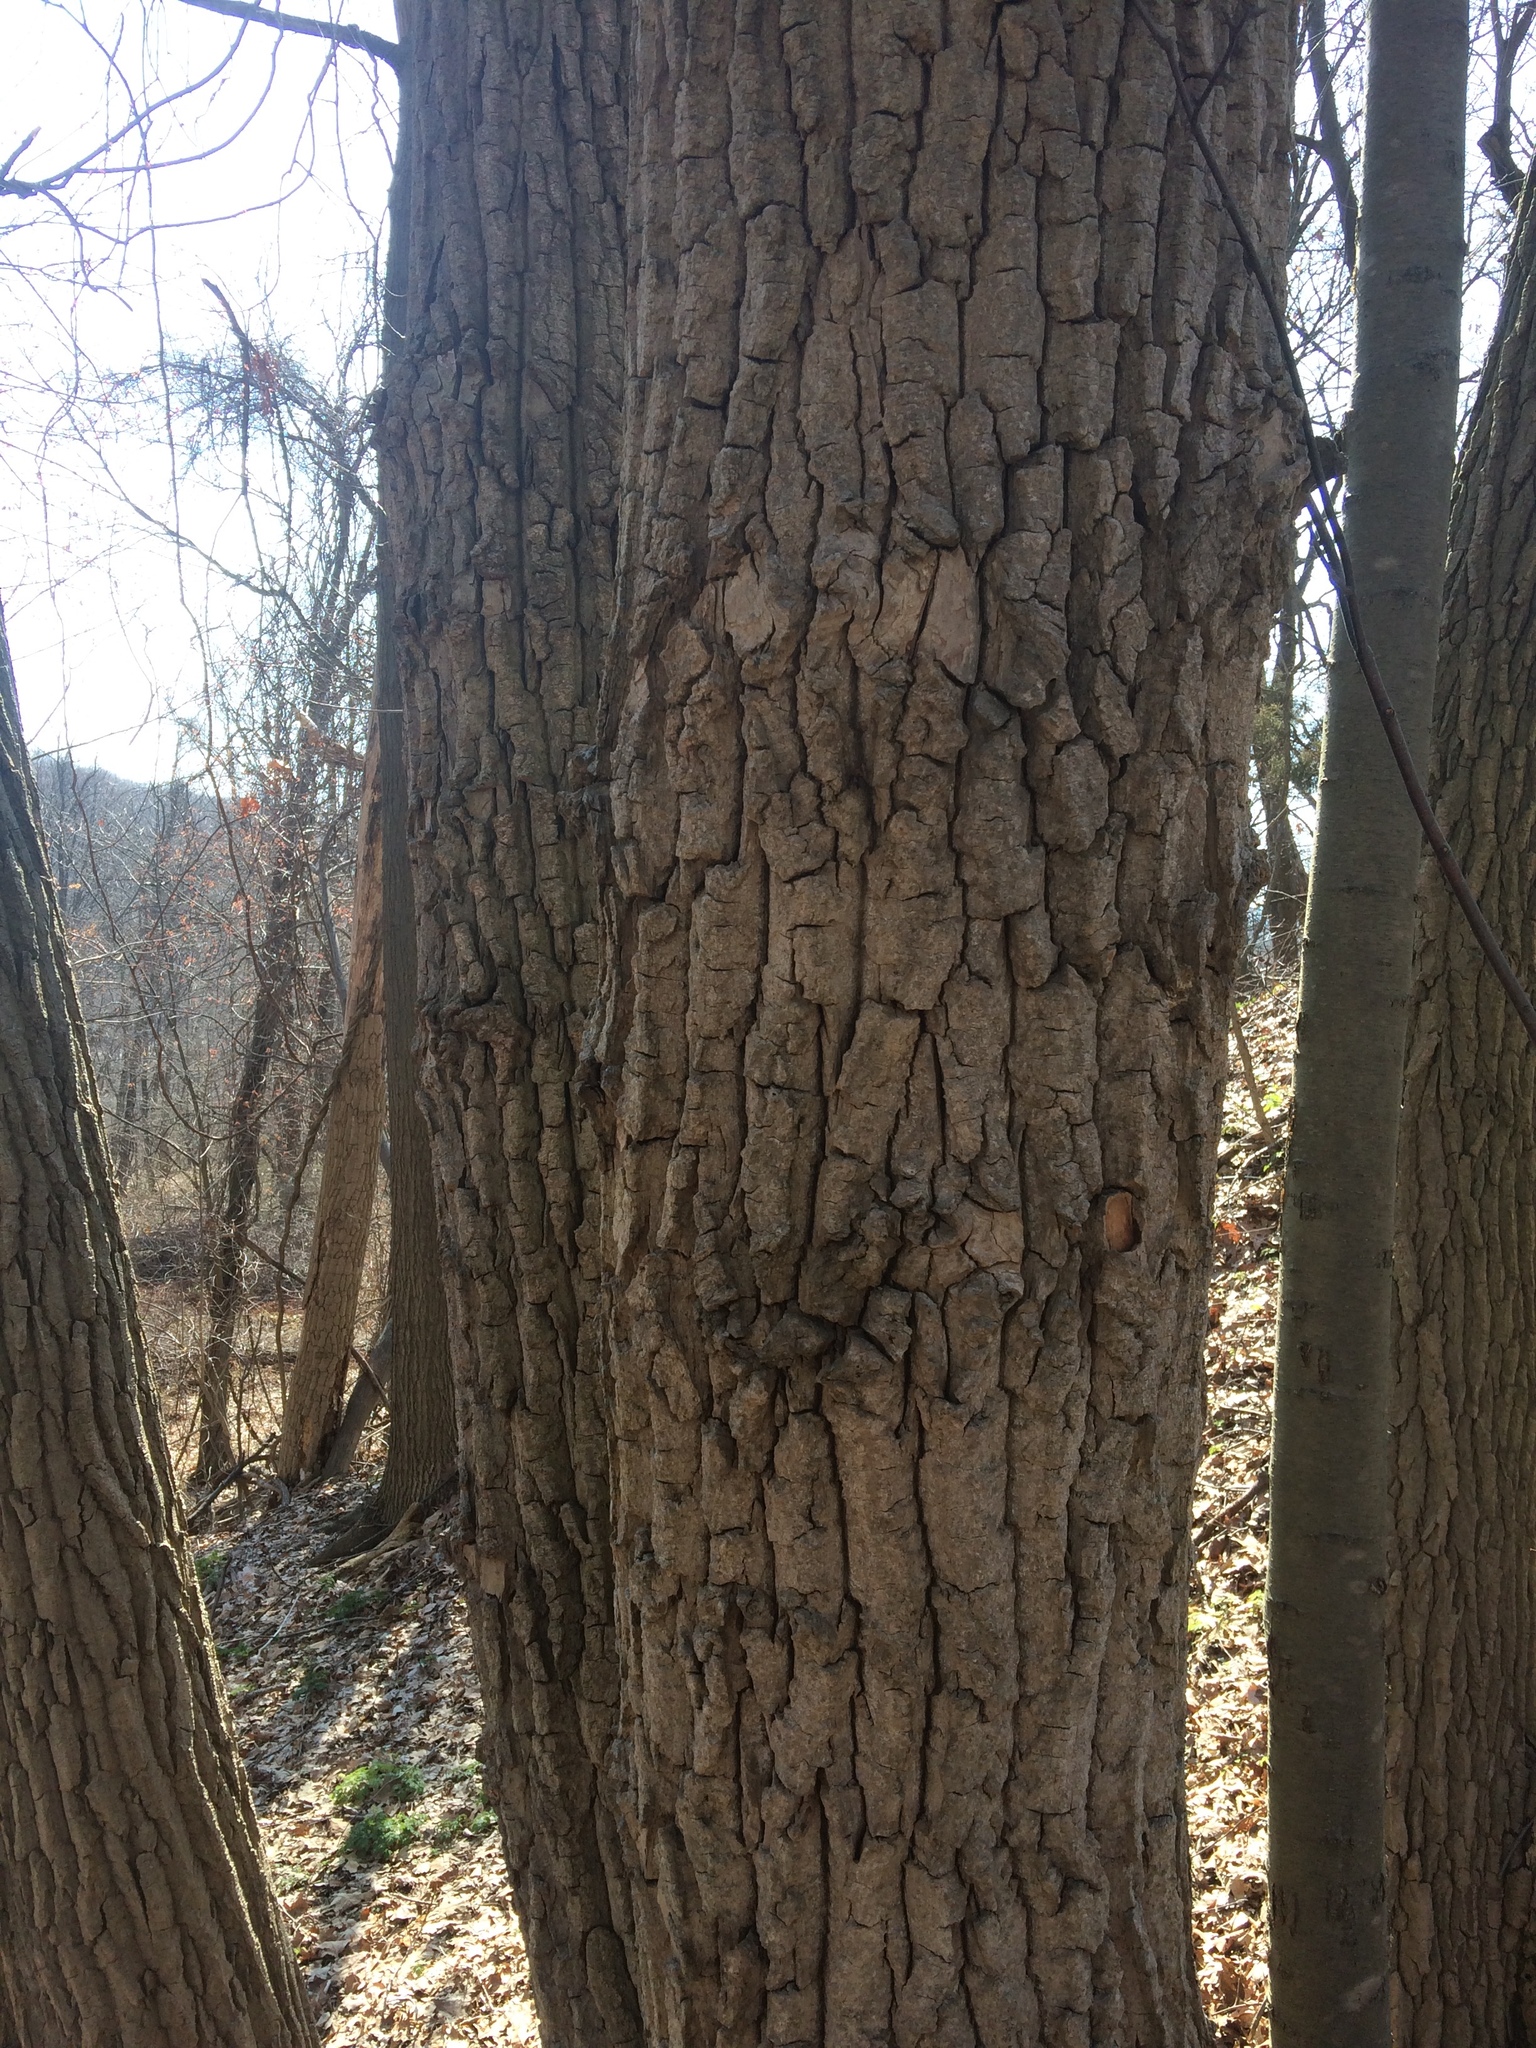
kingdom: Plantae
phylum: Tracheophyta
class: Magnoliopsida
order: Fagales
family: Fagaceae
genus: Quercus
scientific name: Quercus montana
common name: Chestnut oak
